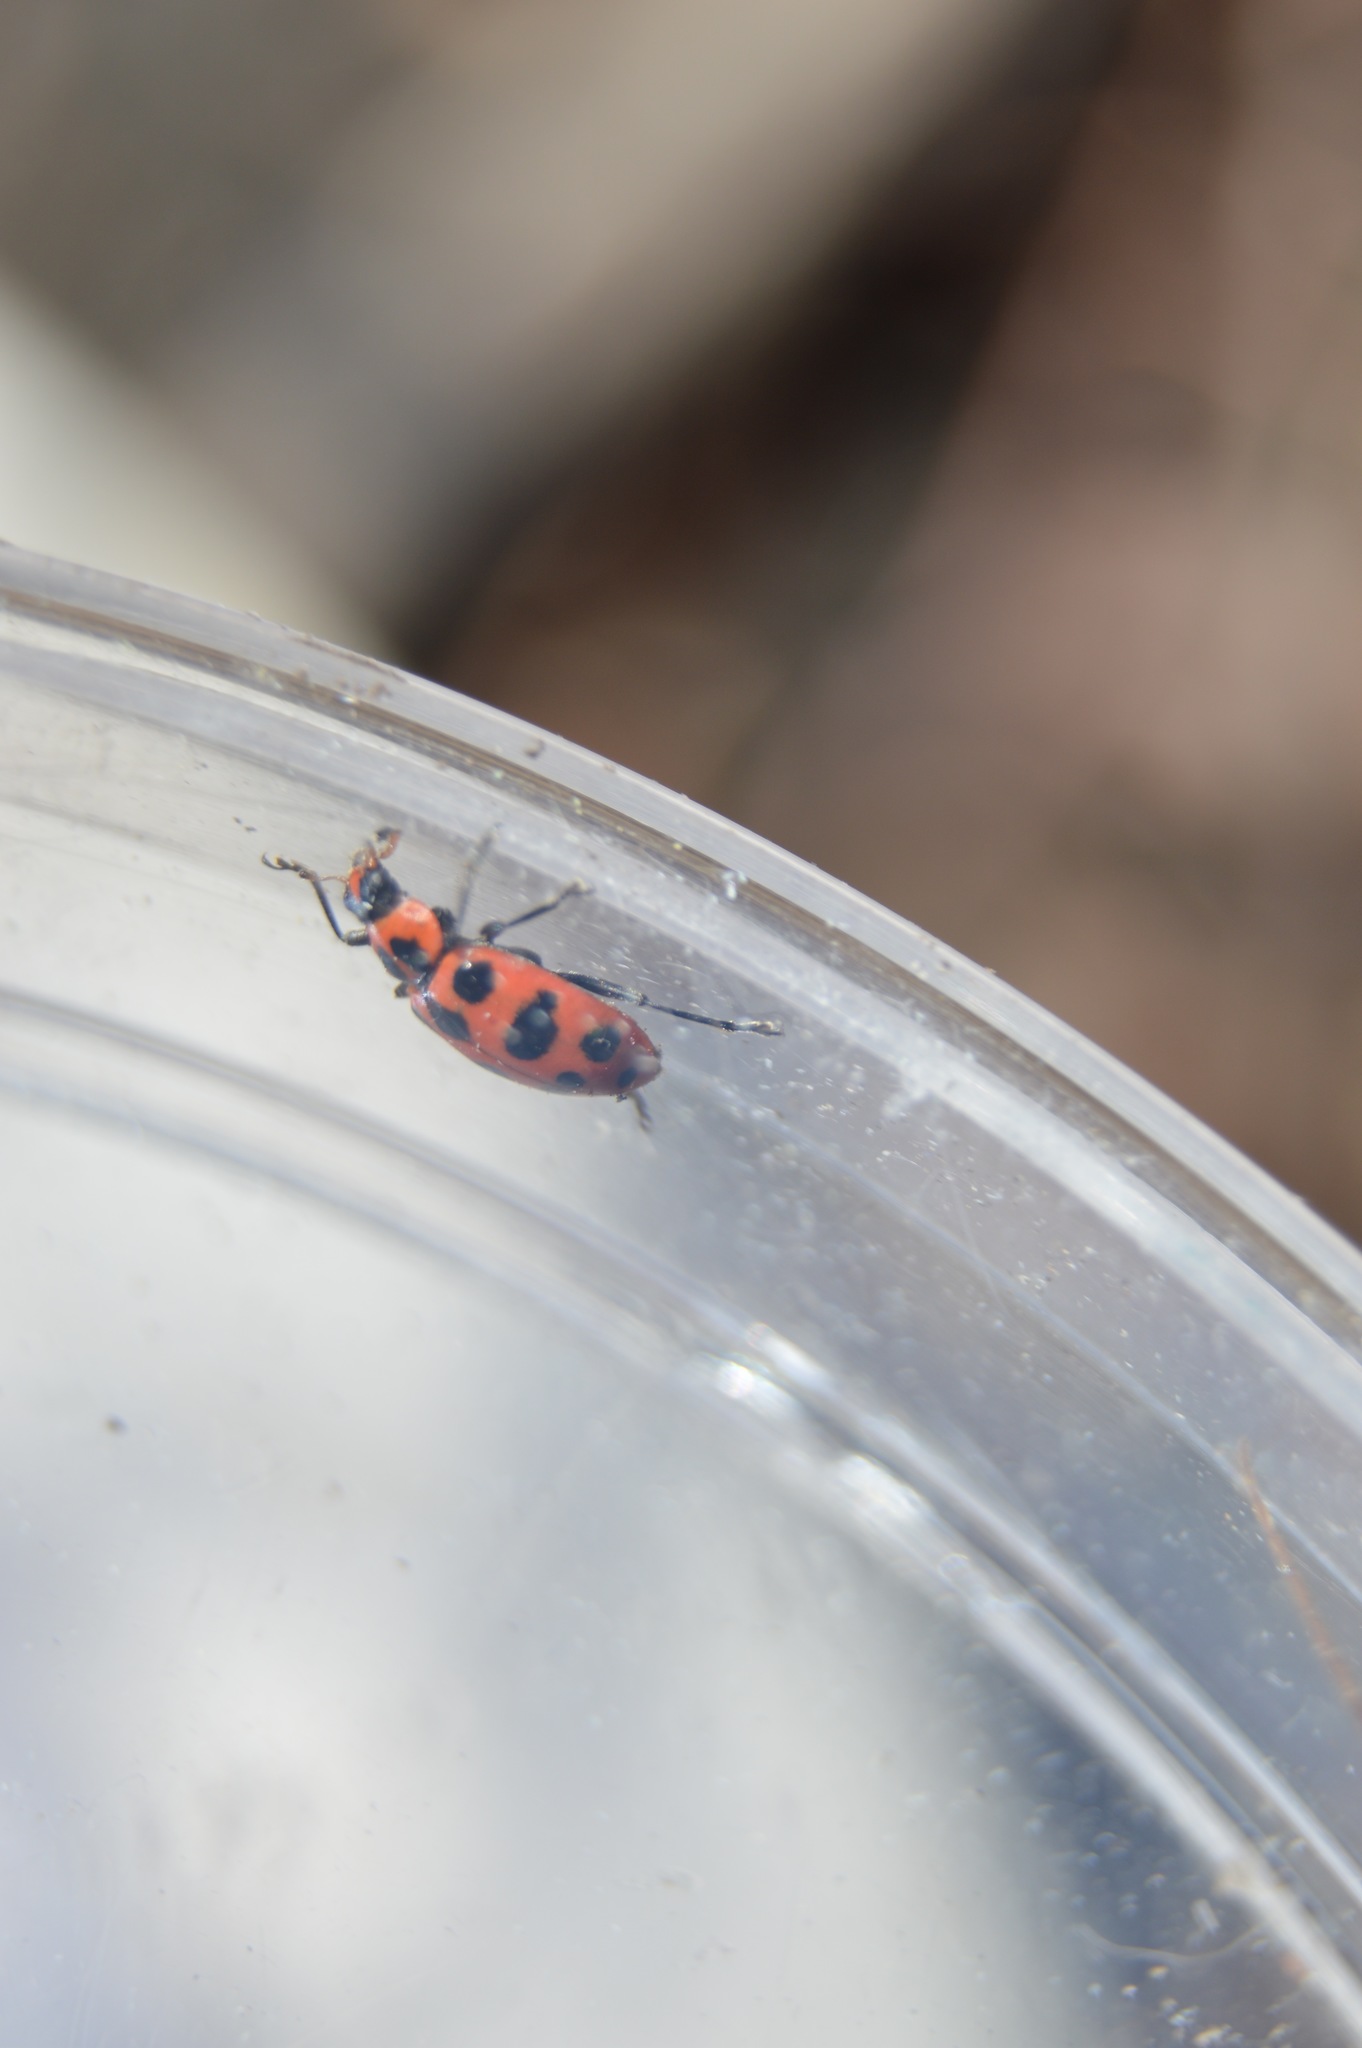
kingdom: Animalia
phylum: Arthropoda
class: Insecta
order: Coleoptera
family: Coccinellidae
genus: Coleomegilla
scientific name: Coleomegilla maculata
